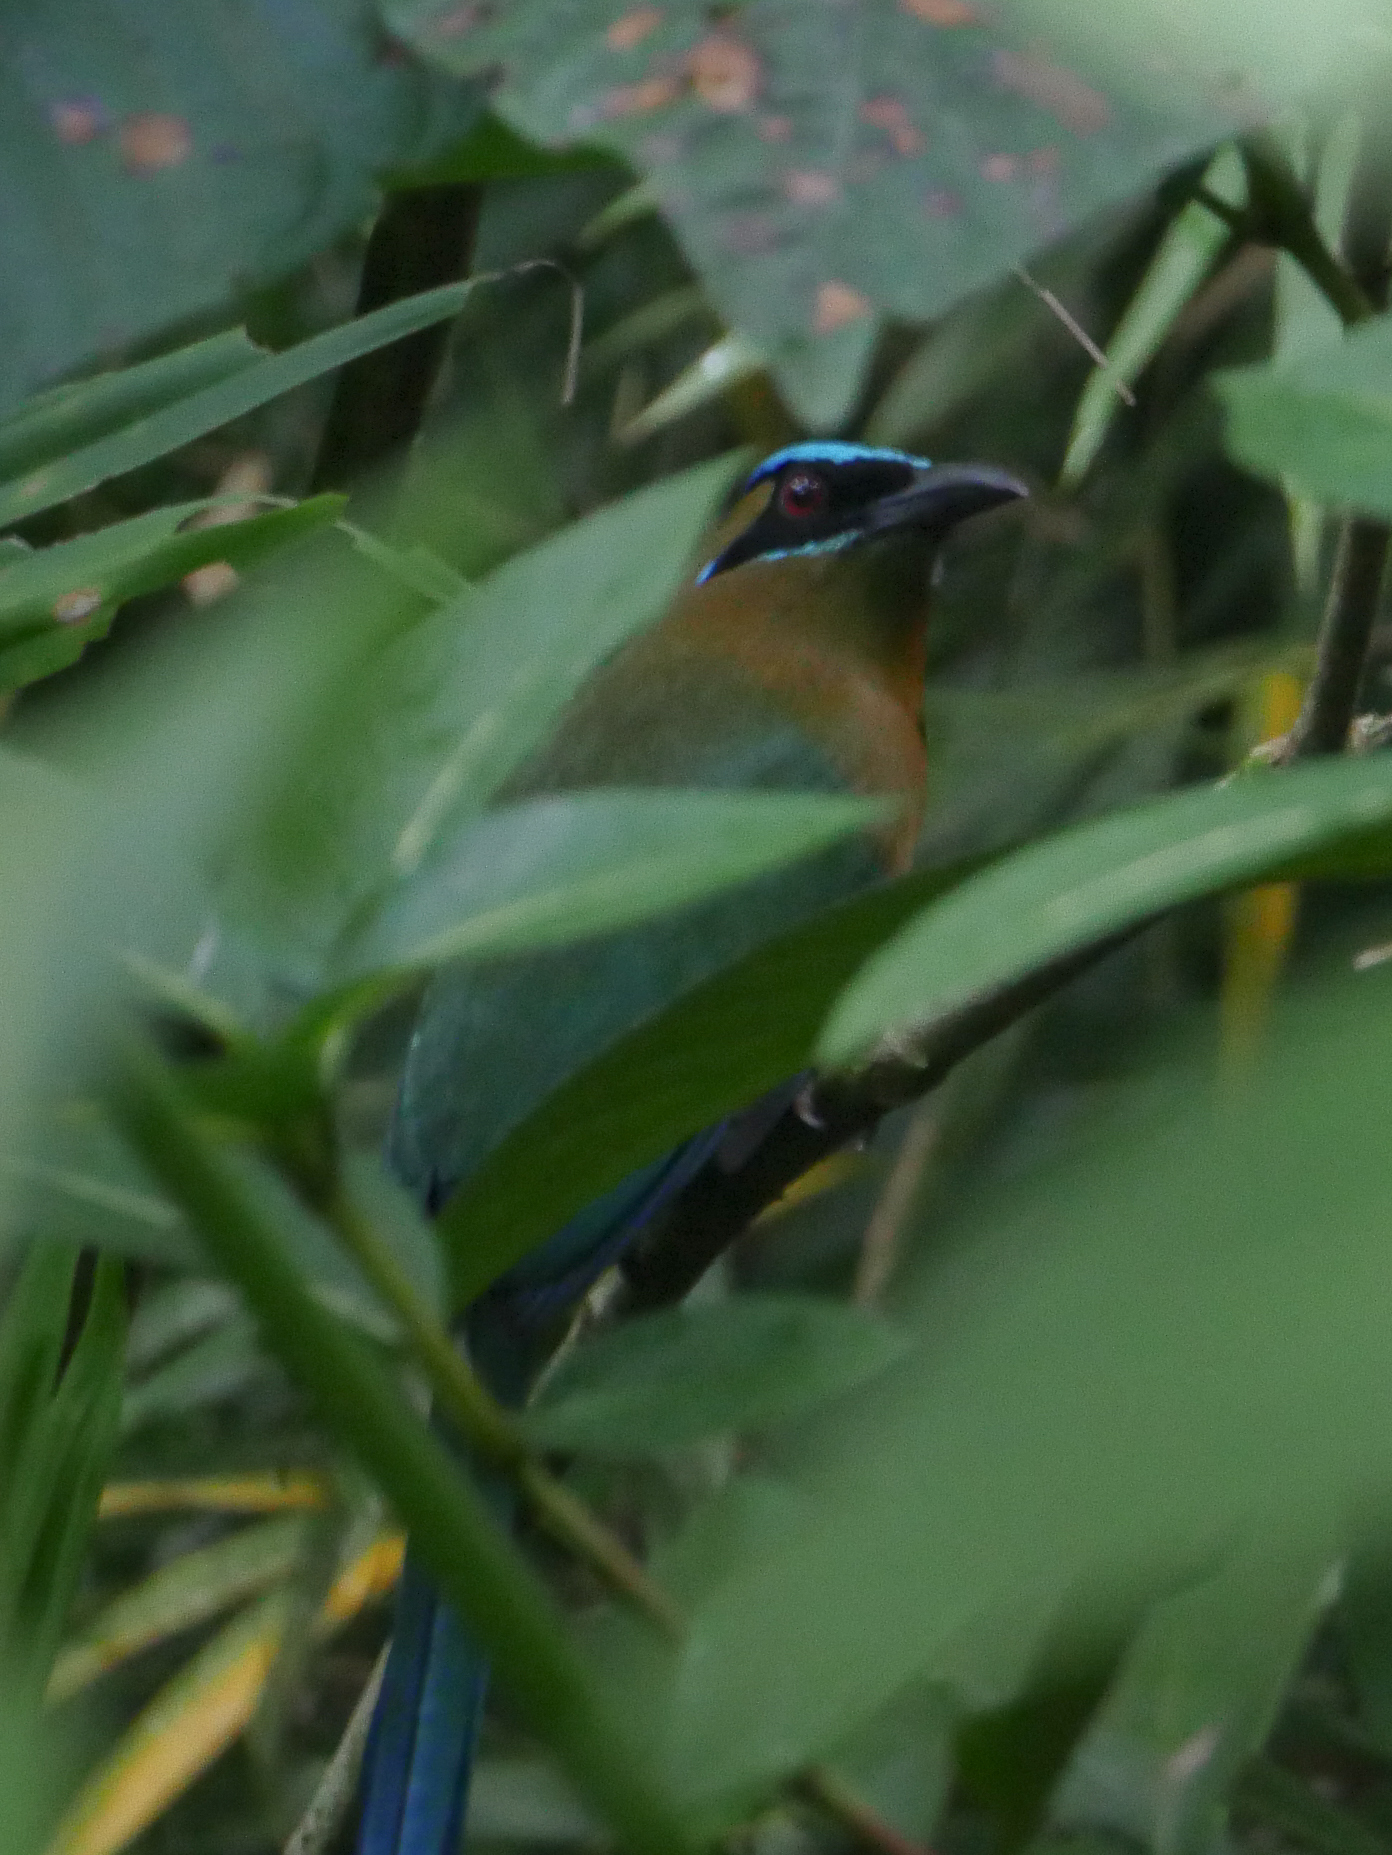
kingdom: Animalia
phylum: Chordata
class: Aves
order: Coraciiformes
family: Momotidae
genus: Momotus
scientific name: Momotus lessonii
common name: Lesson's motmot
